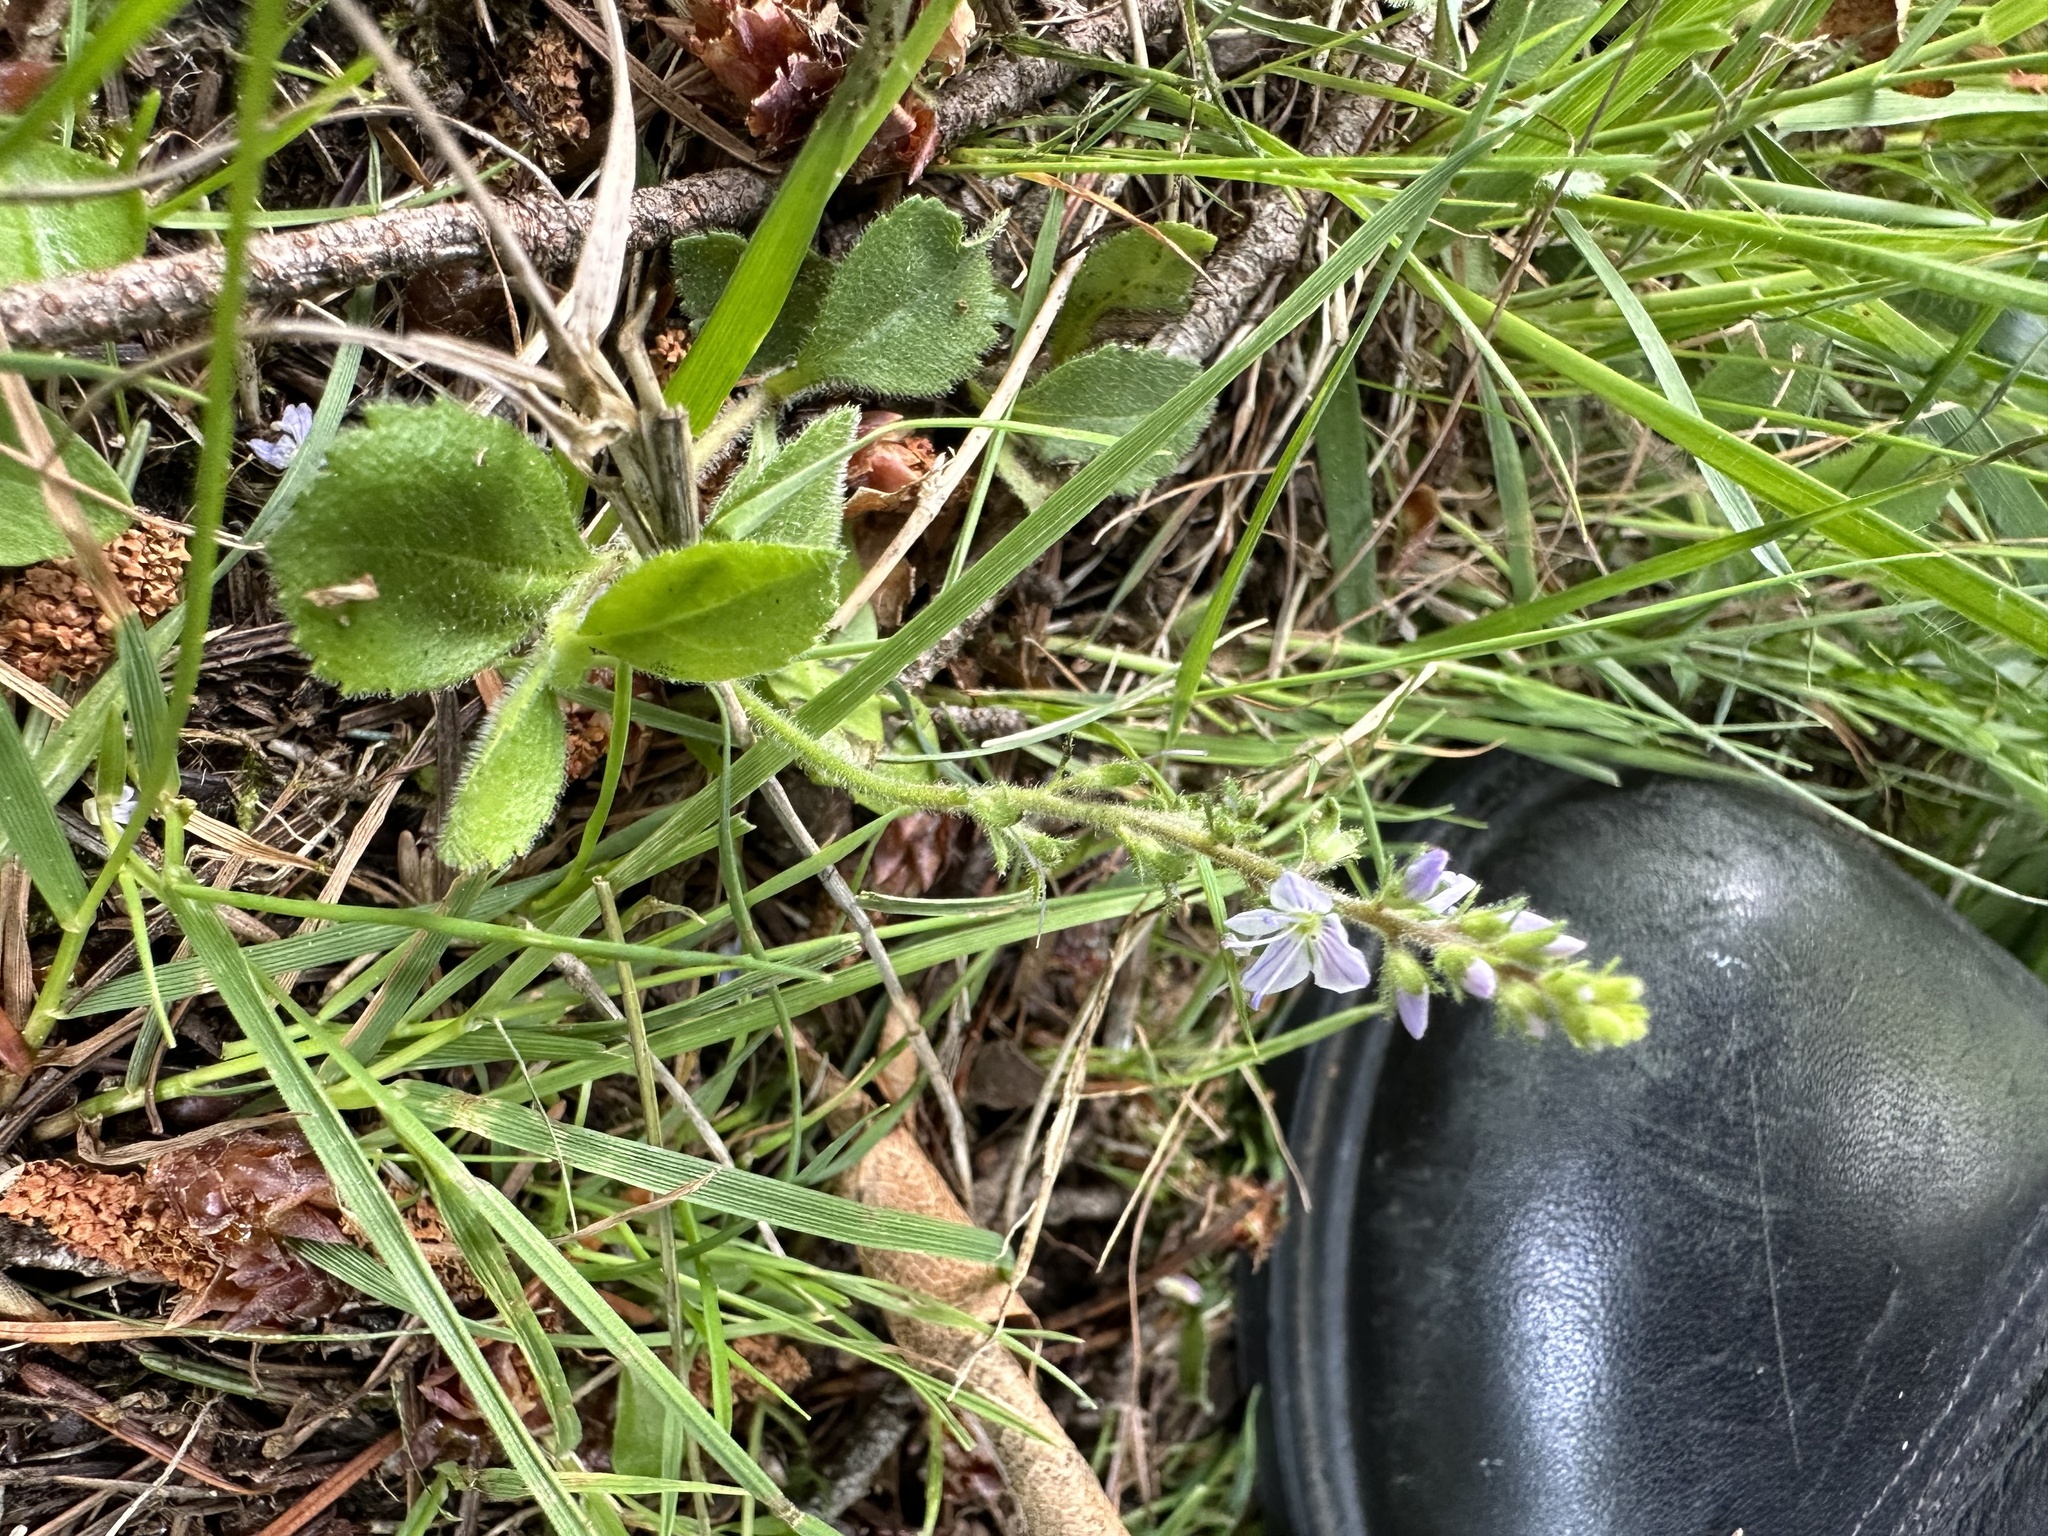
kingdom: Plantae
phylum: Tracheophyta
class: Magnoliopsida
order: Lamiales
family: Plantaginaceae
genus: Veronica
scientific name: Veronica officinalis
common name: Common speedwell
